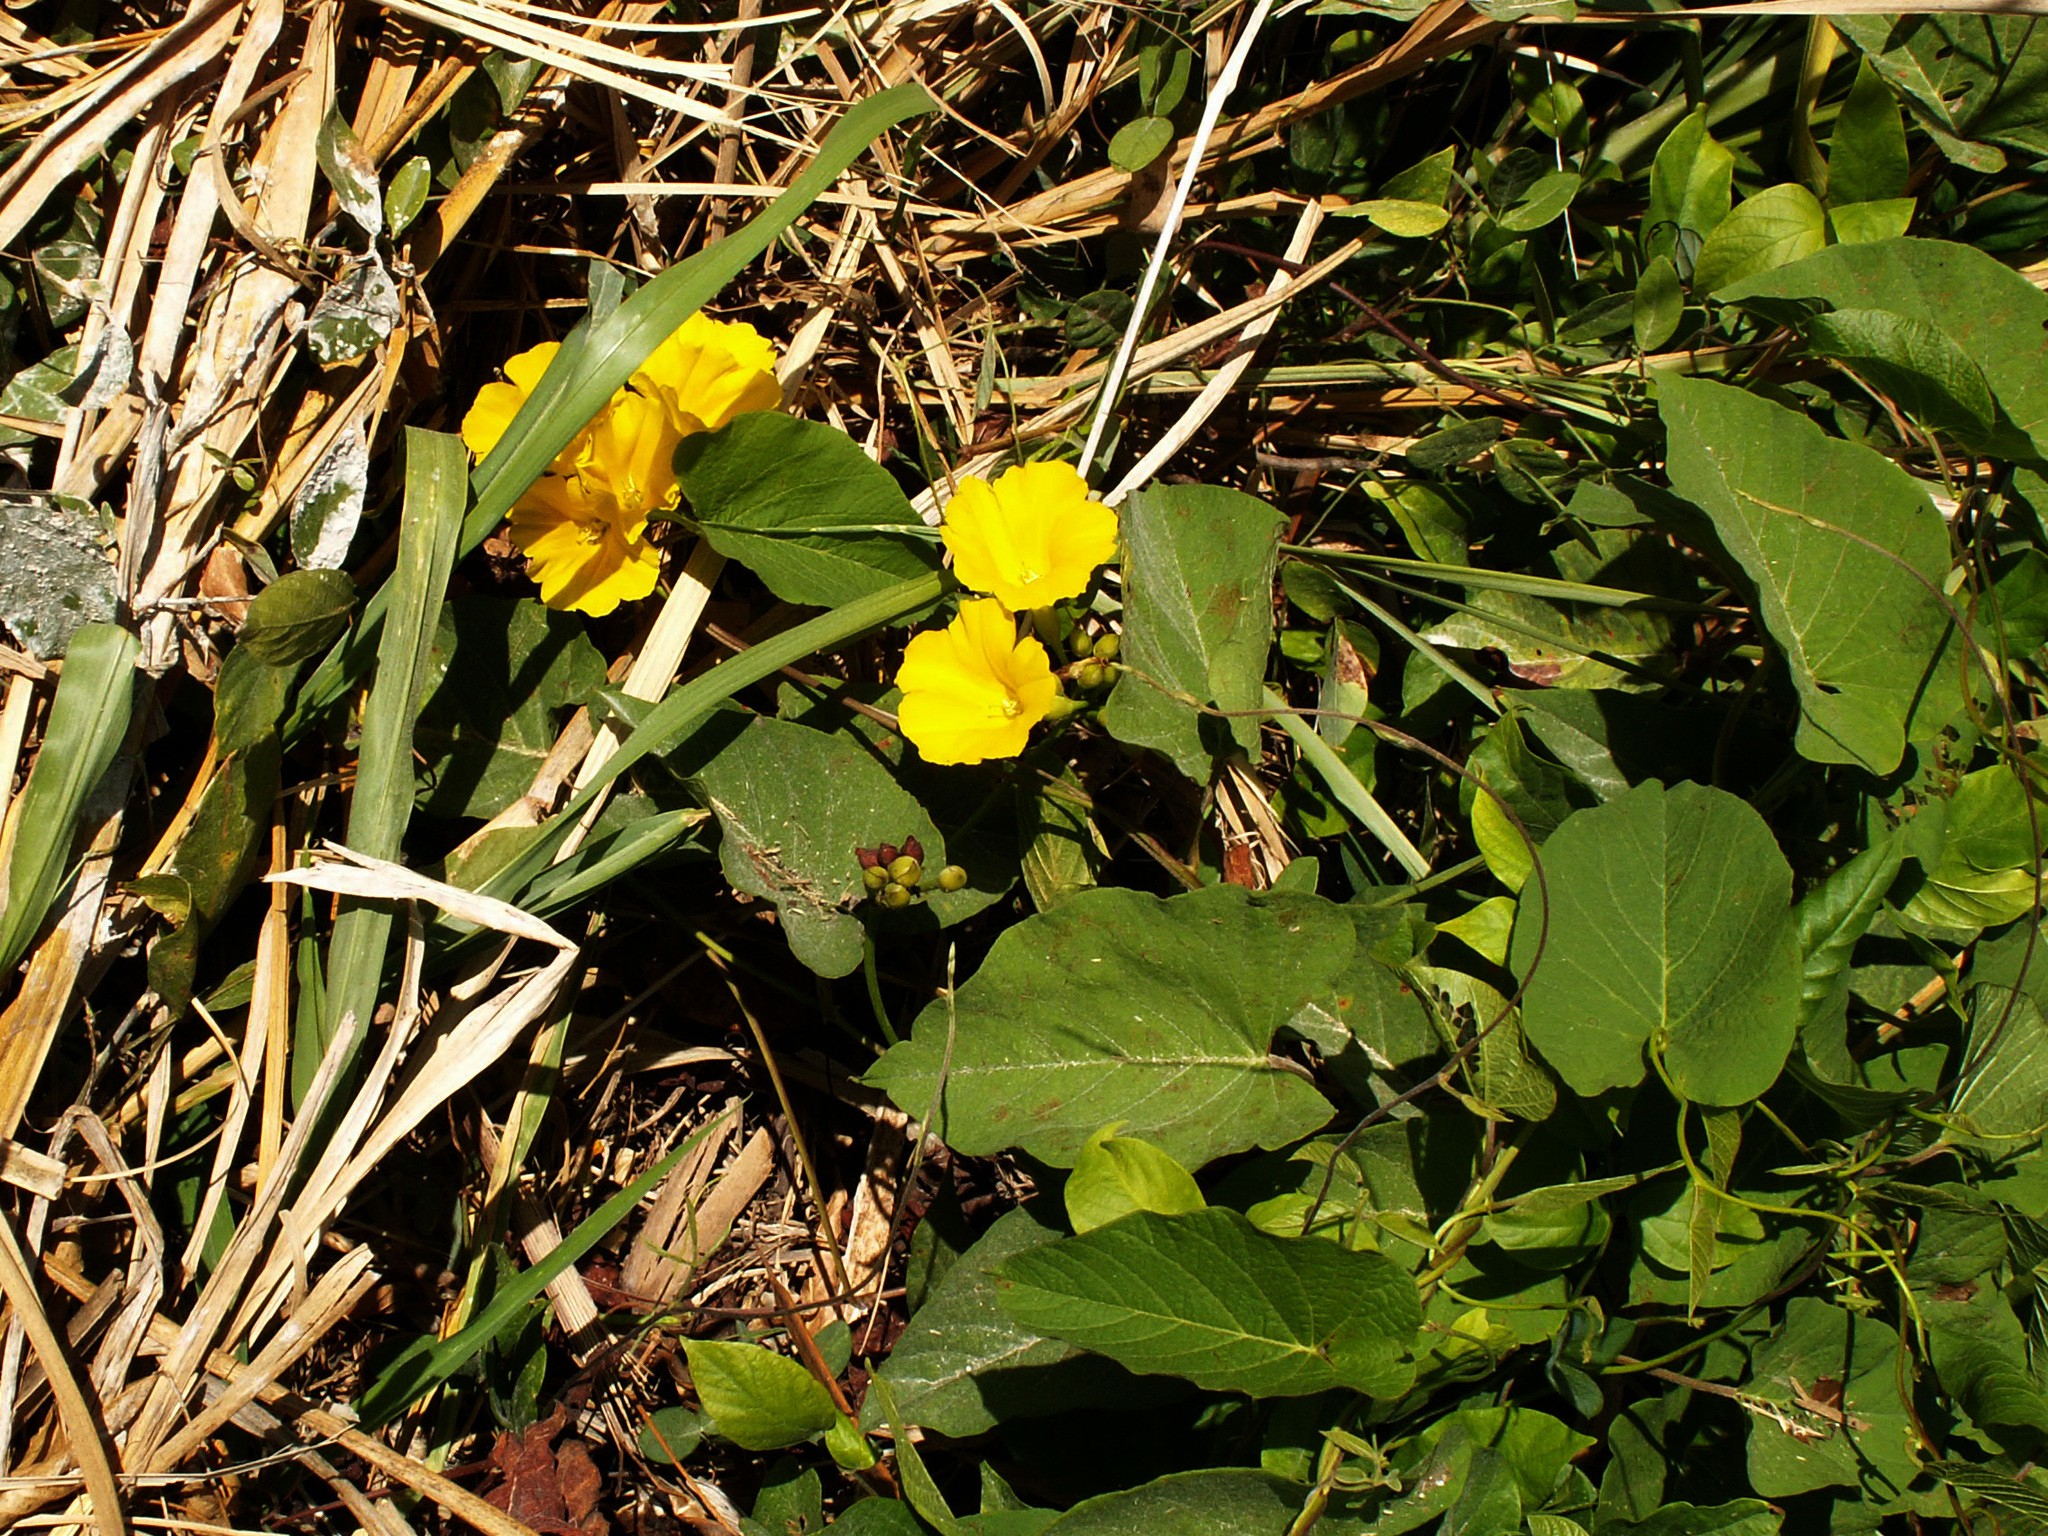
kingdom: Plantae
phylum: Tracheophyta
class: Magnoliopsida
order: Solanales
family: Convolvulaceae
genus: Camonea
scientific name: Camonea umbellata
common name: Hogvine
